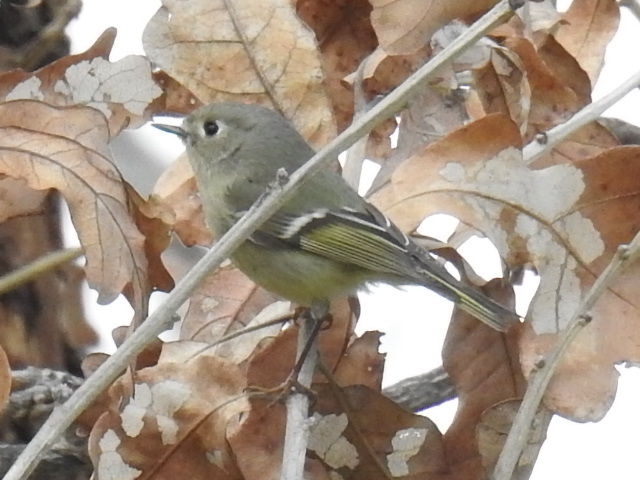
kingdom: Animalia
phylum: Chordata
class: Aves
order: Passeriformes
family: Regulidae
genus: Regulus
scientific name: Regulus calendula
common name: Ruby-crowned kinglet
